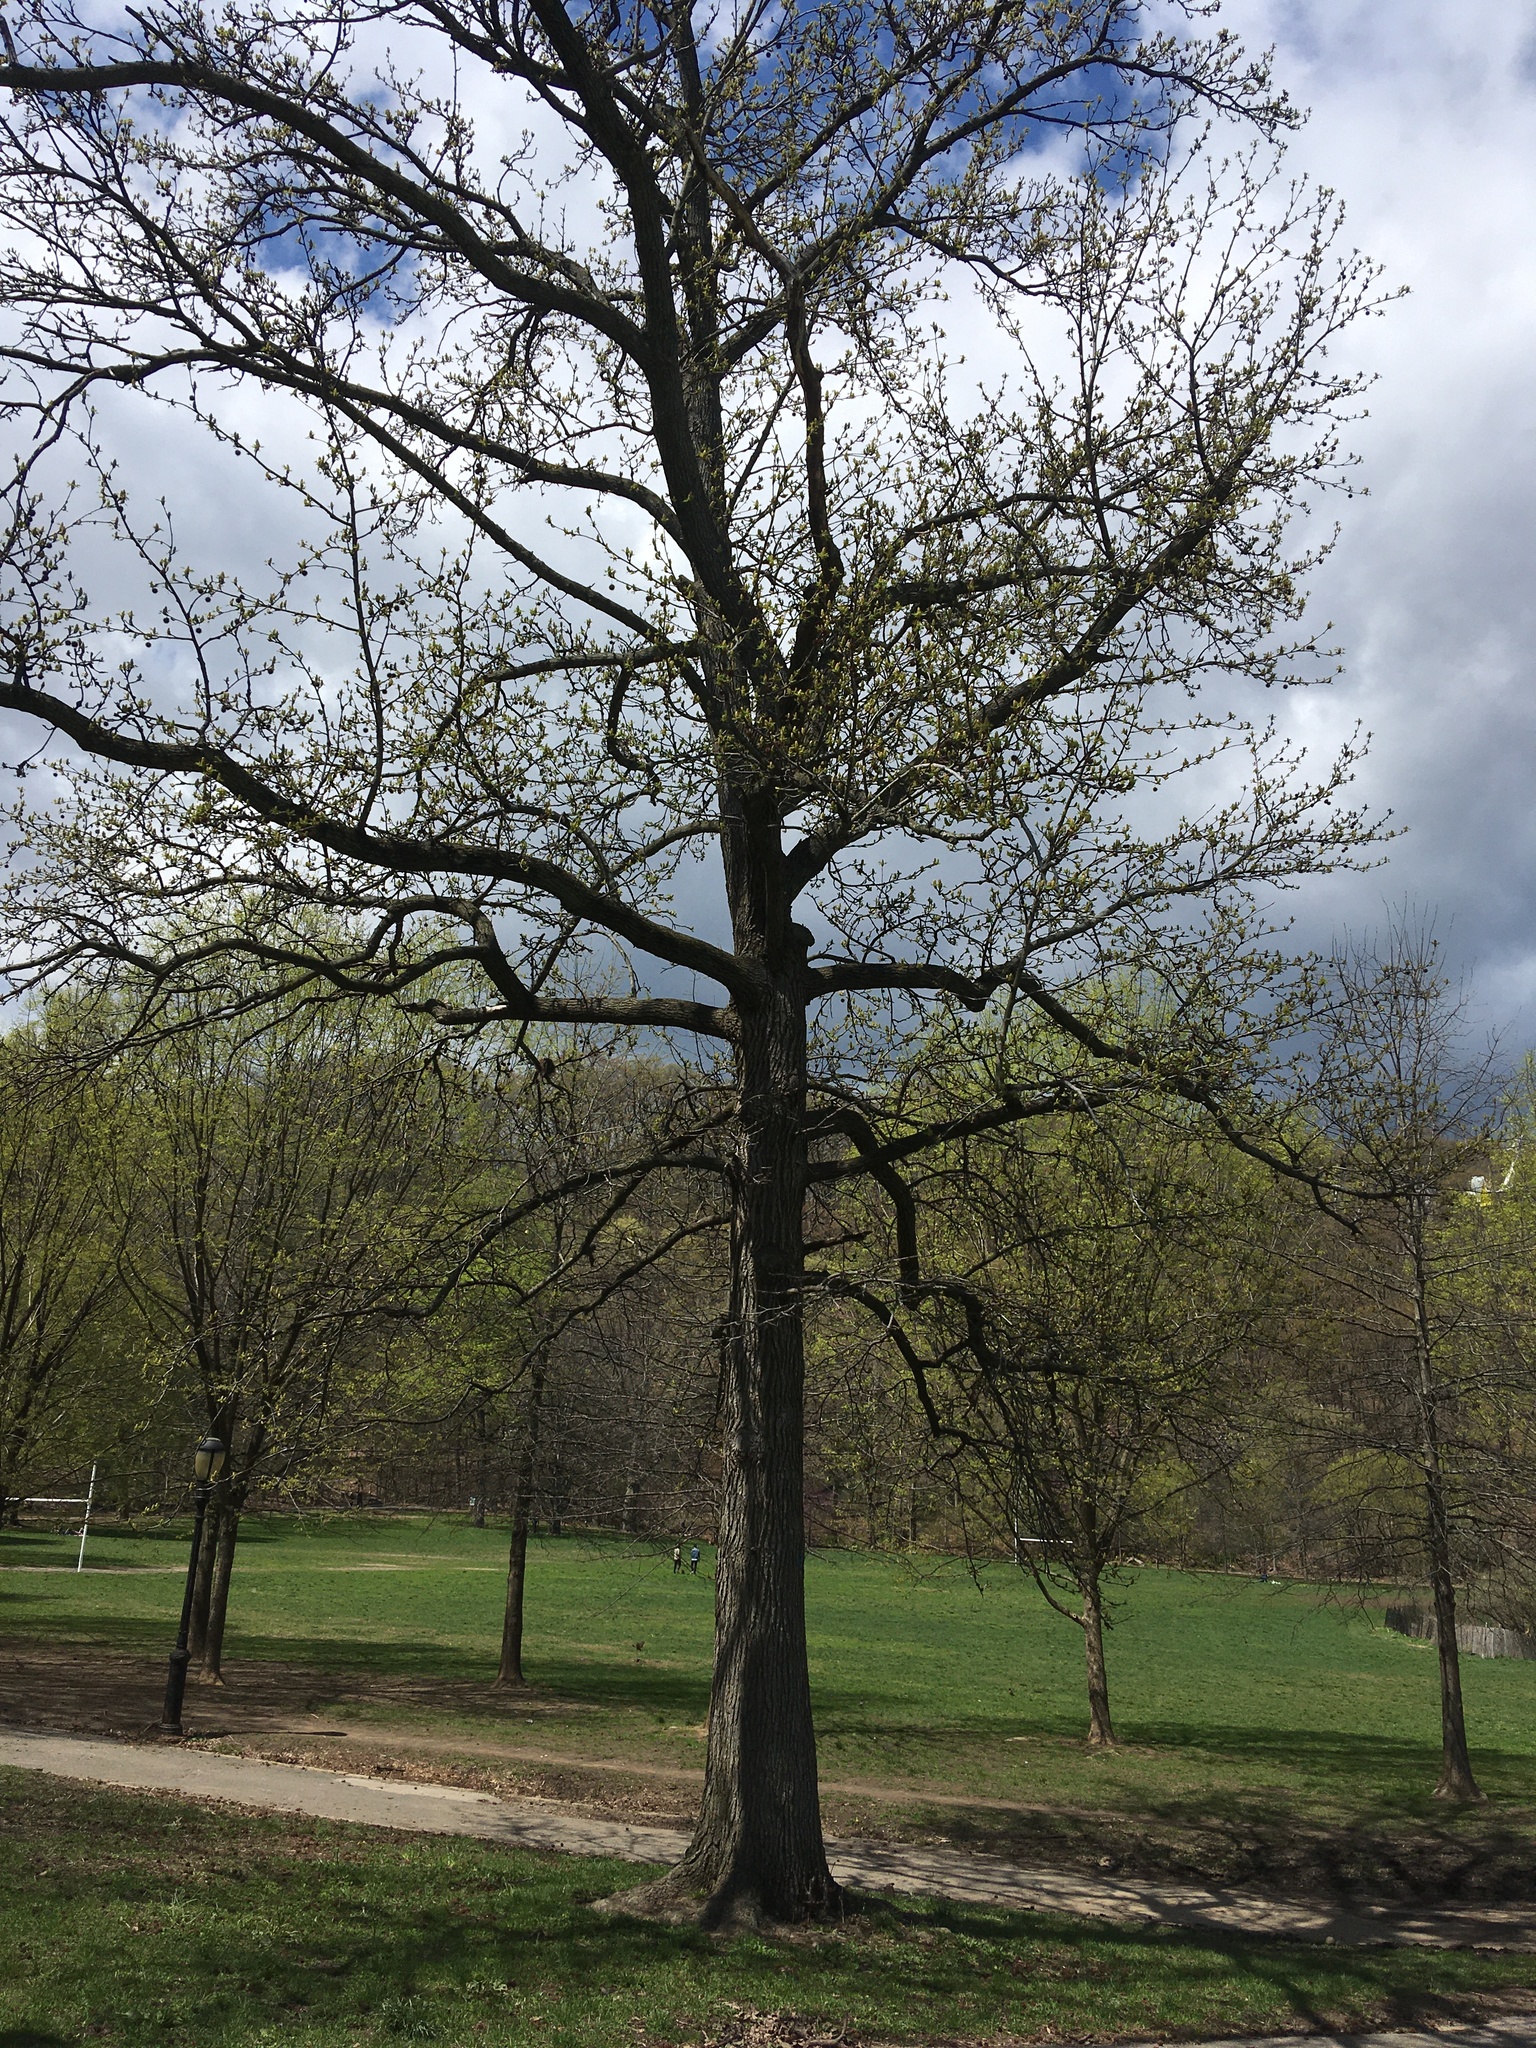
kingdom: Plantae
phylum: Tracheophyta
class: Magnoliopsida
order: Saxifragales
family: Altingiaceae
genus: Liquidambar
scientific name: Liquidambar styraciflua
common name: Sweet gum
